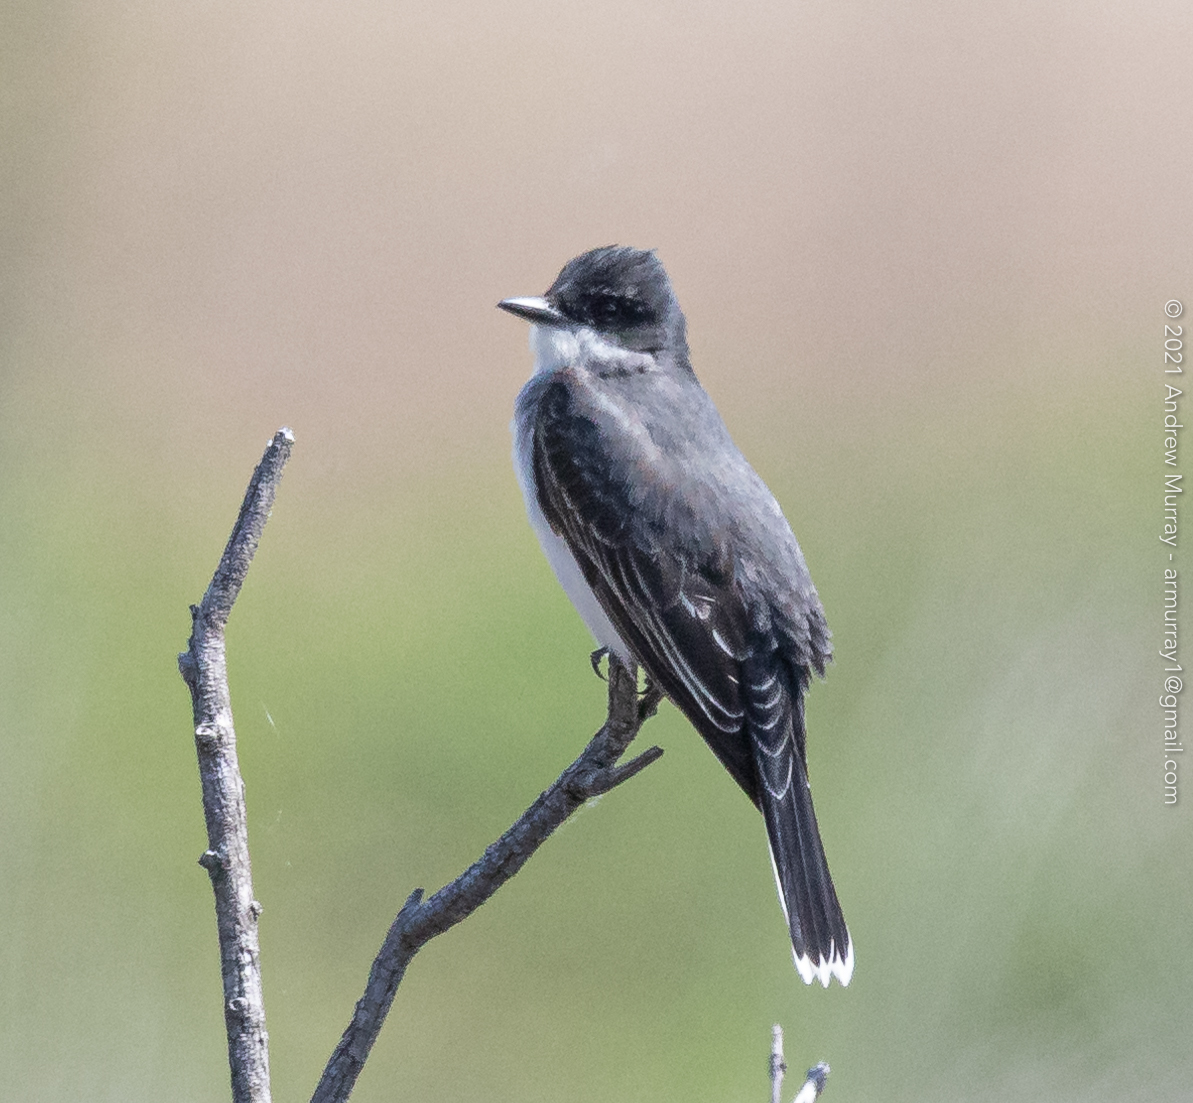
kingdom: Animalia
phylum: Chordata
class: Aves
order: Passeriformes
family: Tyrannidae
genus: Tyrannus
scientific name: Tyrannus tyrannus
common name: Eastern kingbird
